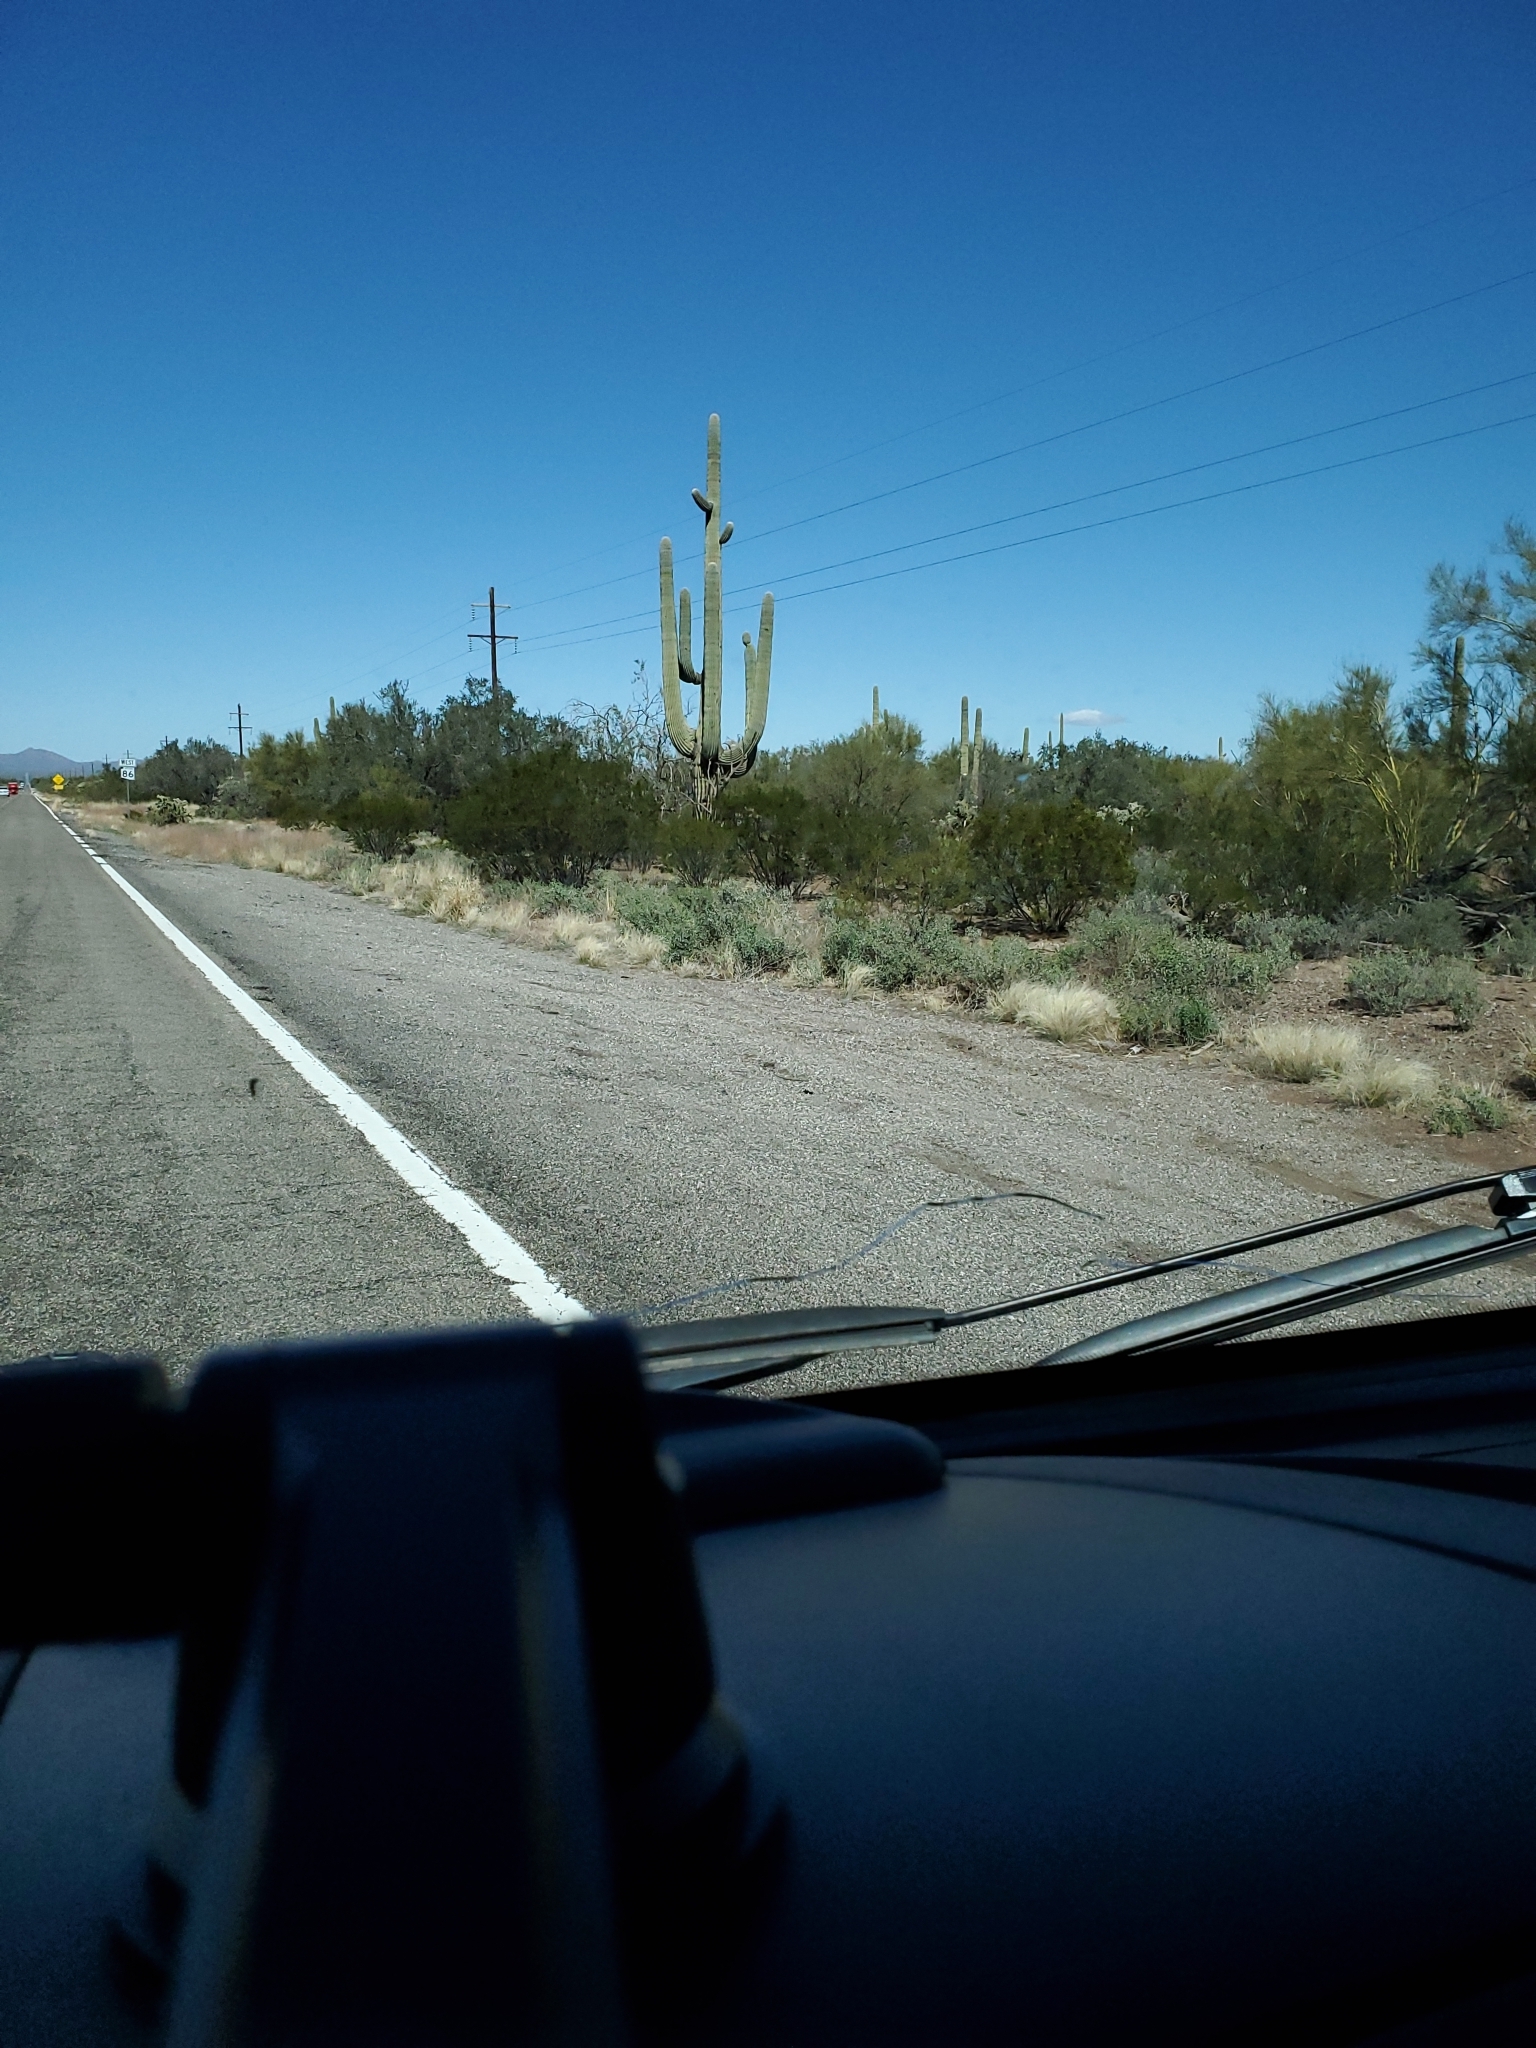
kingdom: Plantae
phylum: Tracheophyta
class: Magnoliopsida
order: Caryophyllales
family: Cactaceae
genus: Carnegiea
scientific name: Carnegiea gigantea
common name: Saguaro
